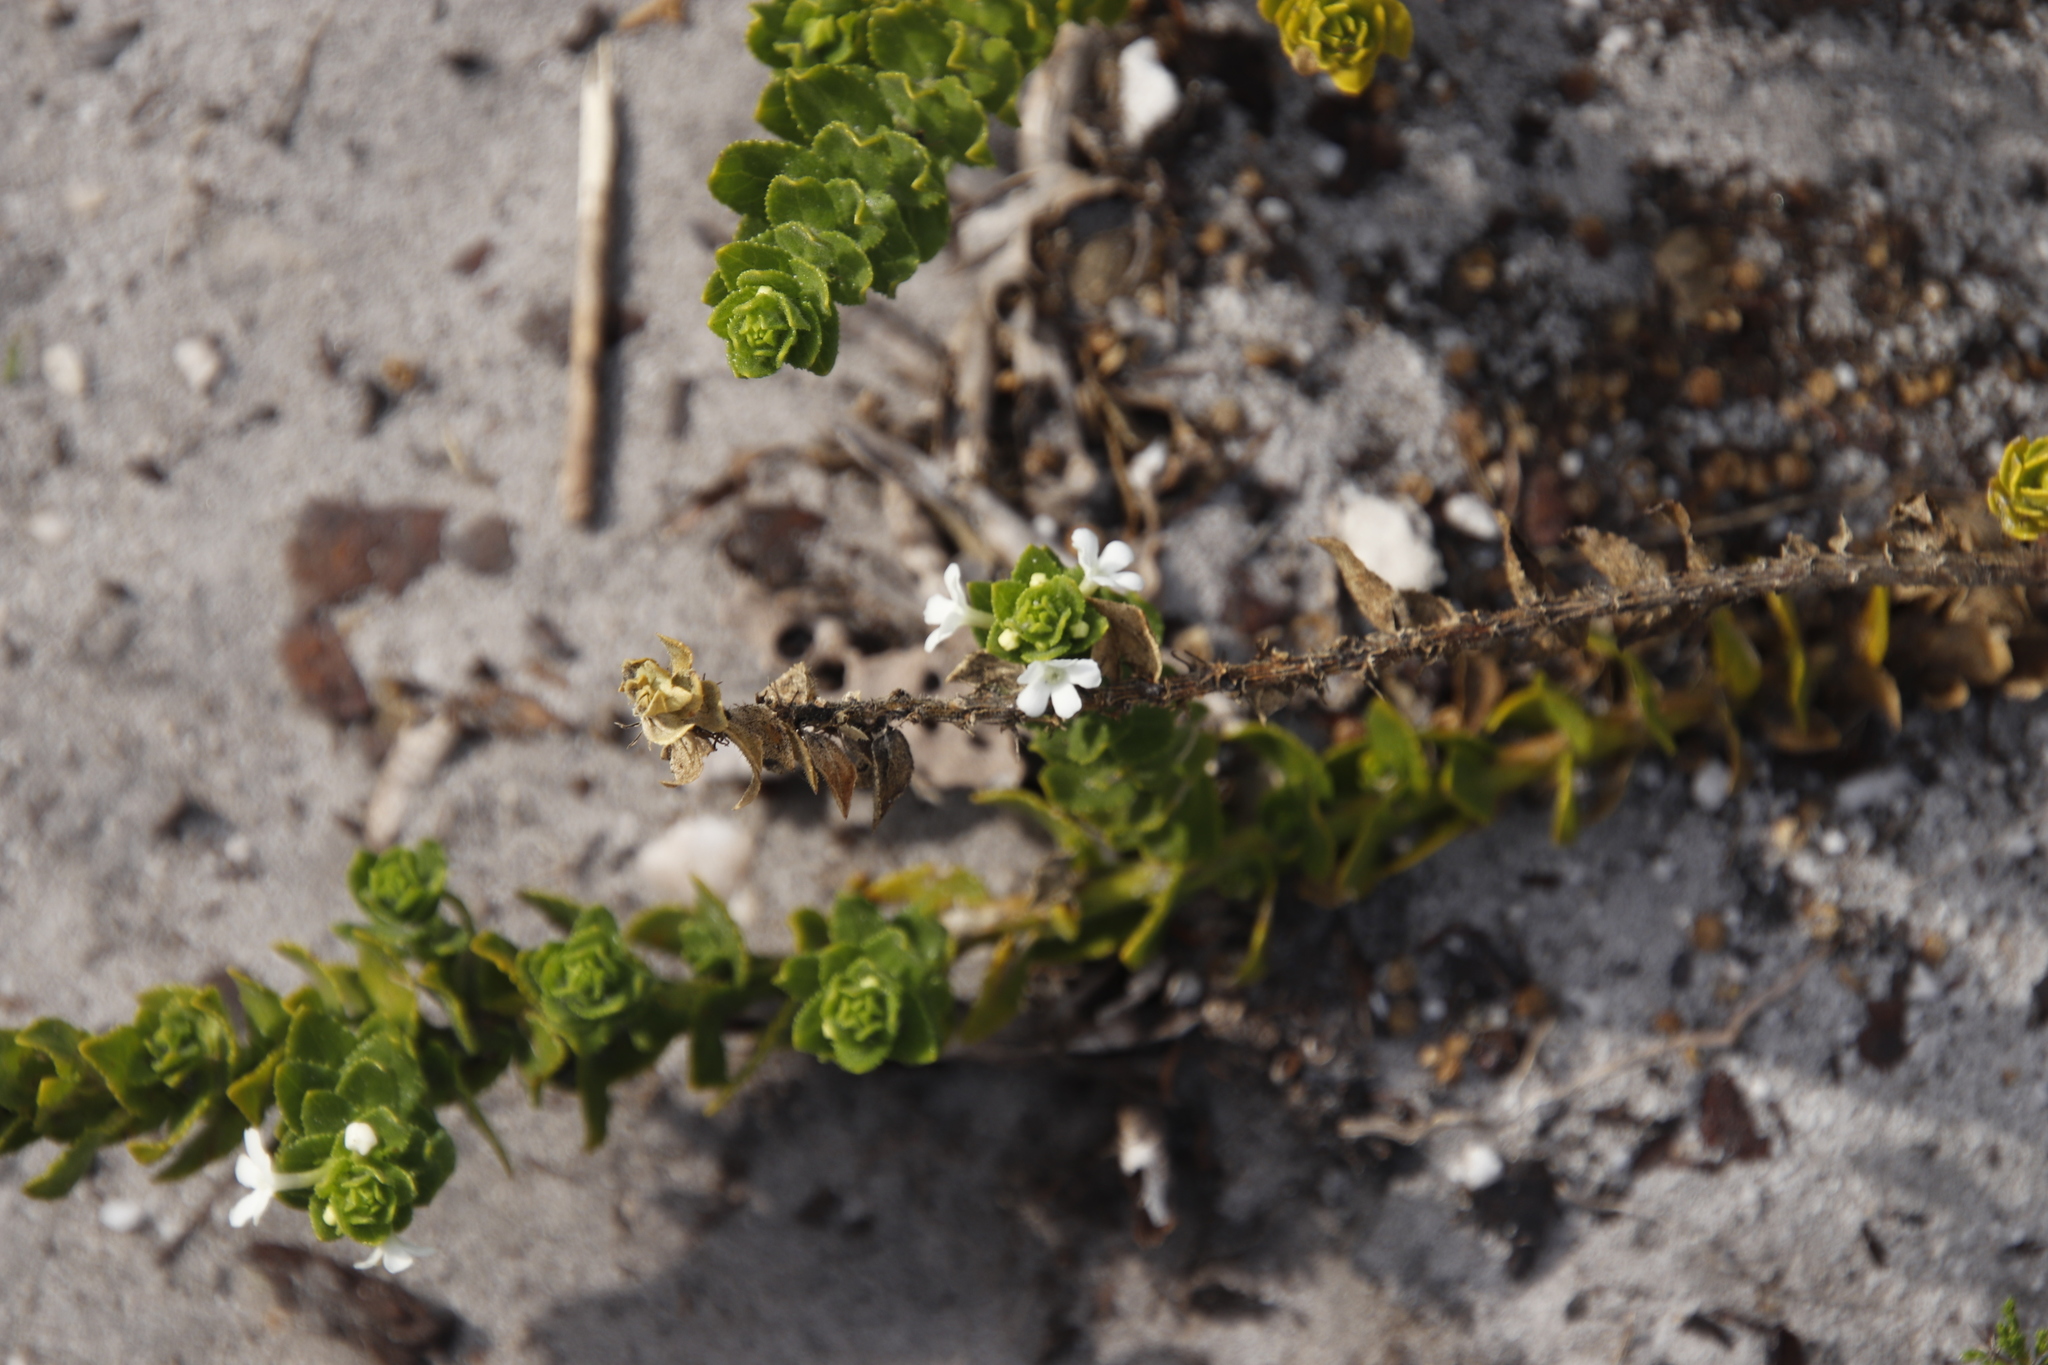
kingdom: Plantae
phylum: Tracheophyta
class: Magnoliopsida
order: Lamiales
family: Scrophulariaceae
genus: Oftia
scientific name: Oftia africana
